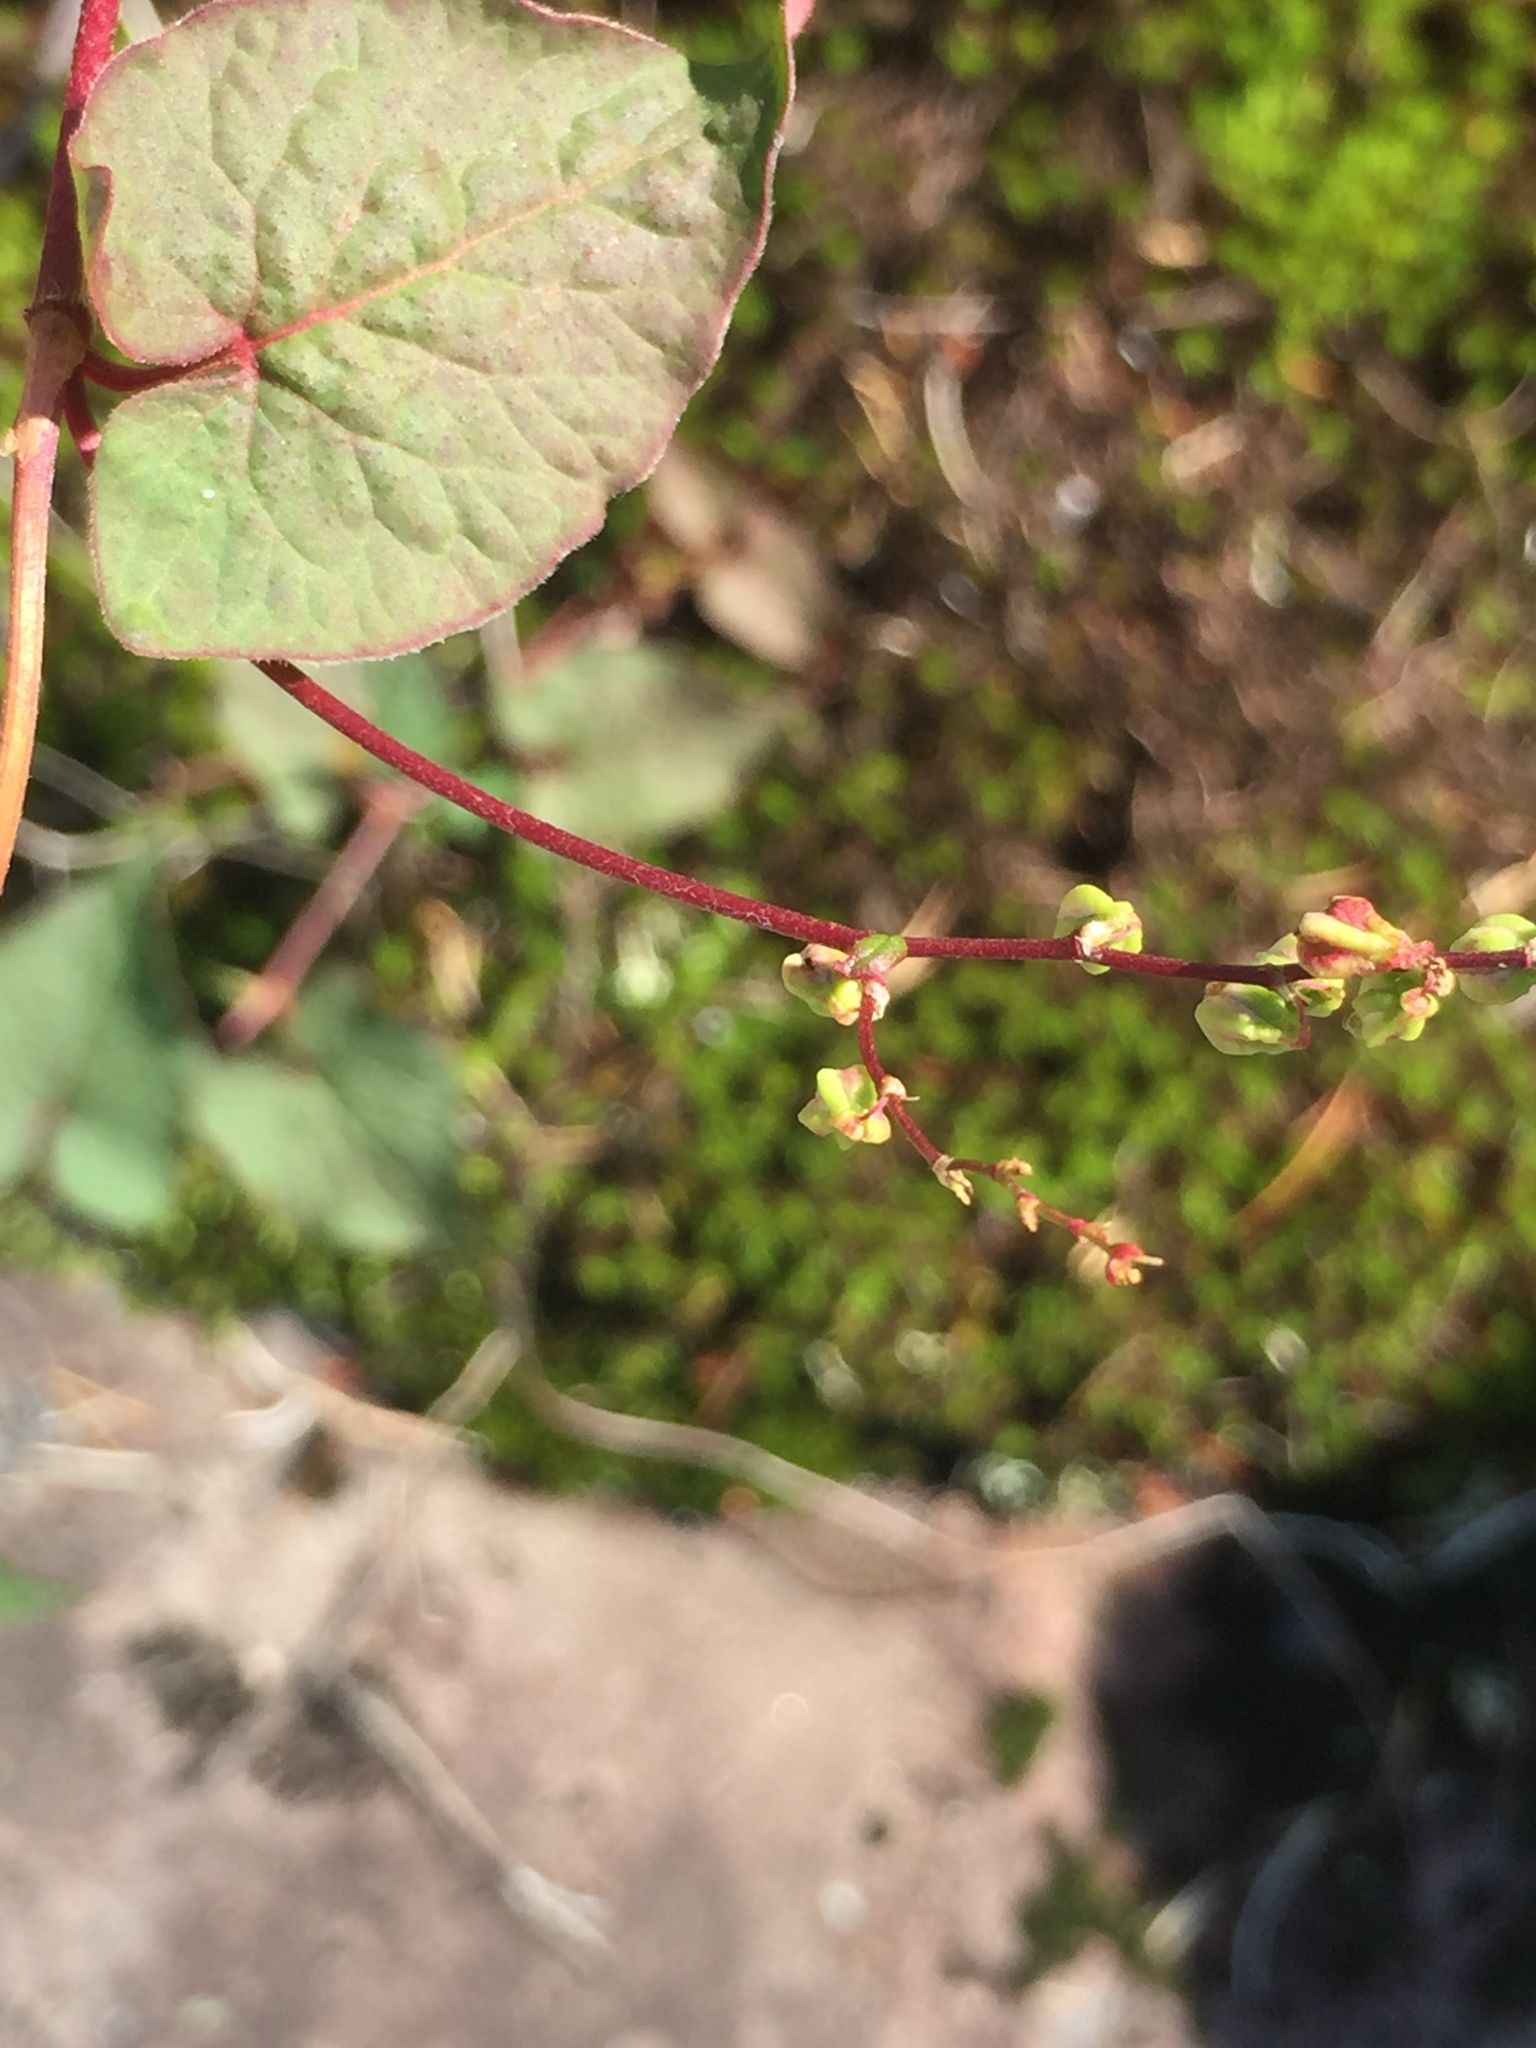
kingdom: Plantae
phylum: Tracheophyta
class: Magnoliopsida
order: Caryophyllales
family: Polygonaceae
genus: Parogonum
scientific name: Parogonum ciliinode
